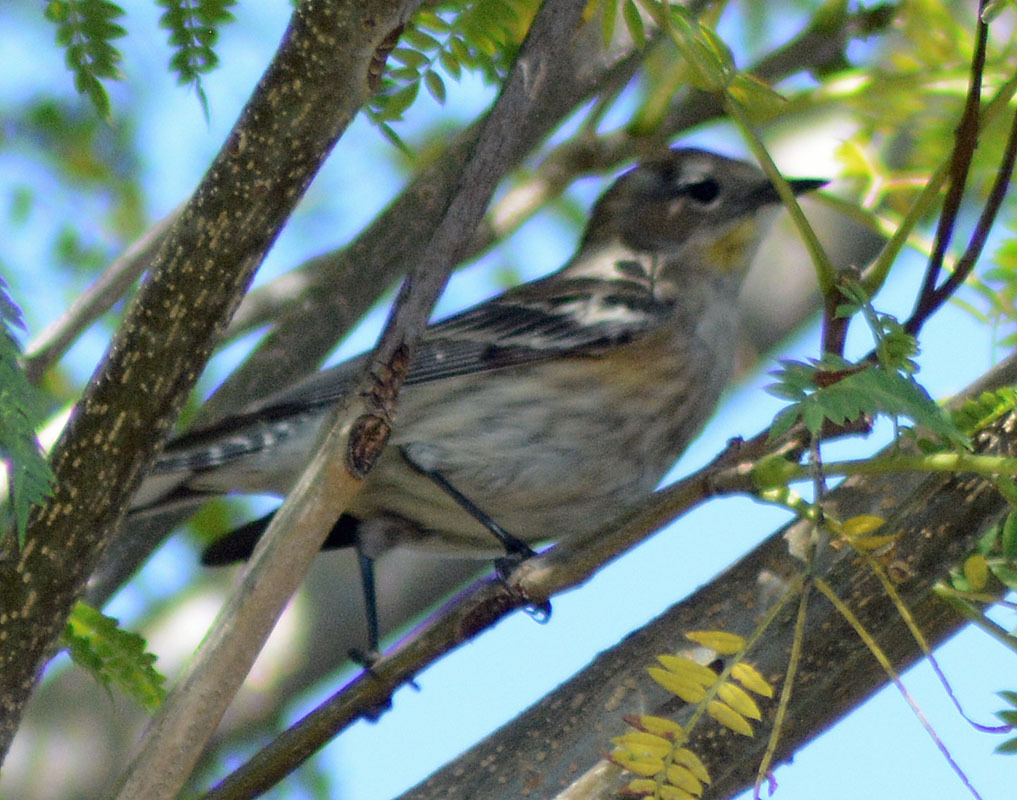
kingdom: Animalia
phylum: Chordata
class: Aves
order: Passeriformes
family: Parulidae
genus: Setophaga
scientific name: Setophaga coronata
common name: Myrtle warbler
